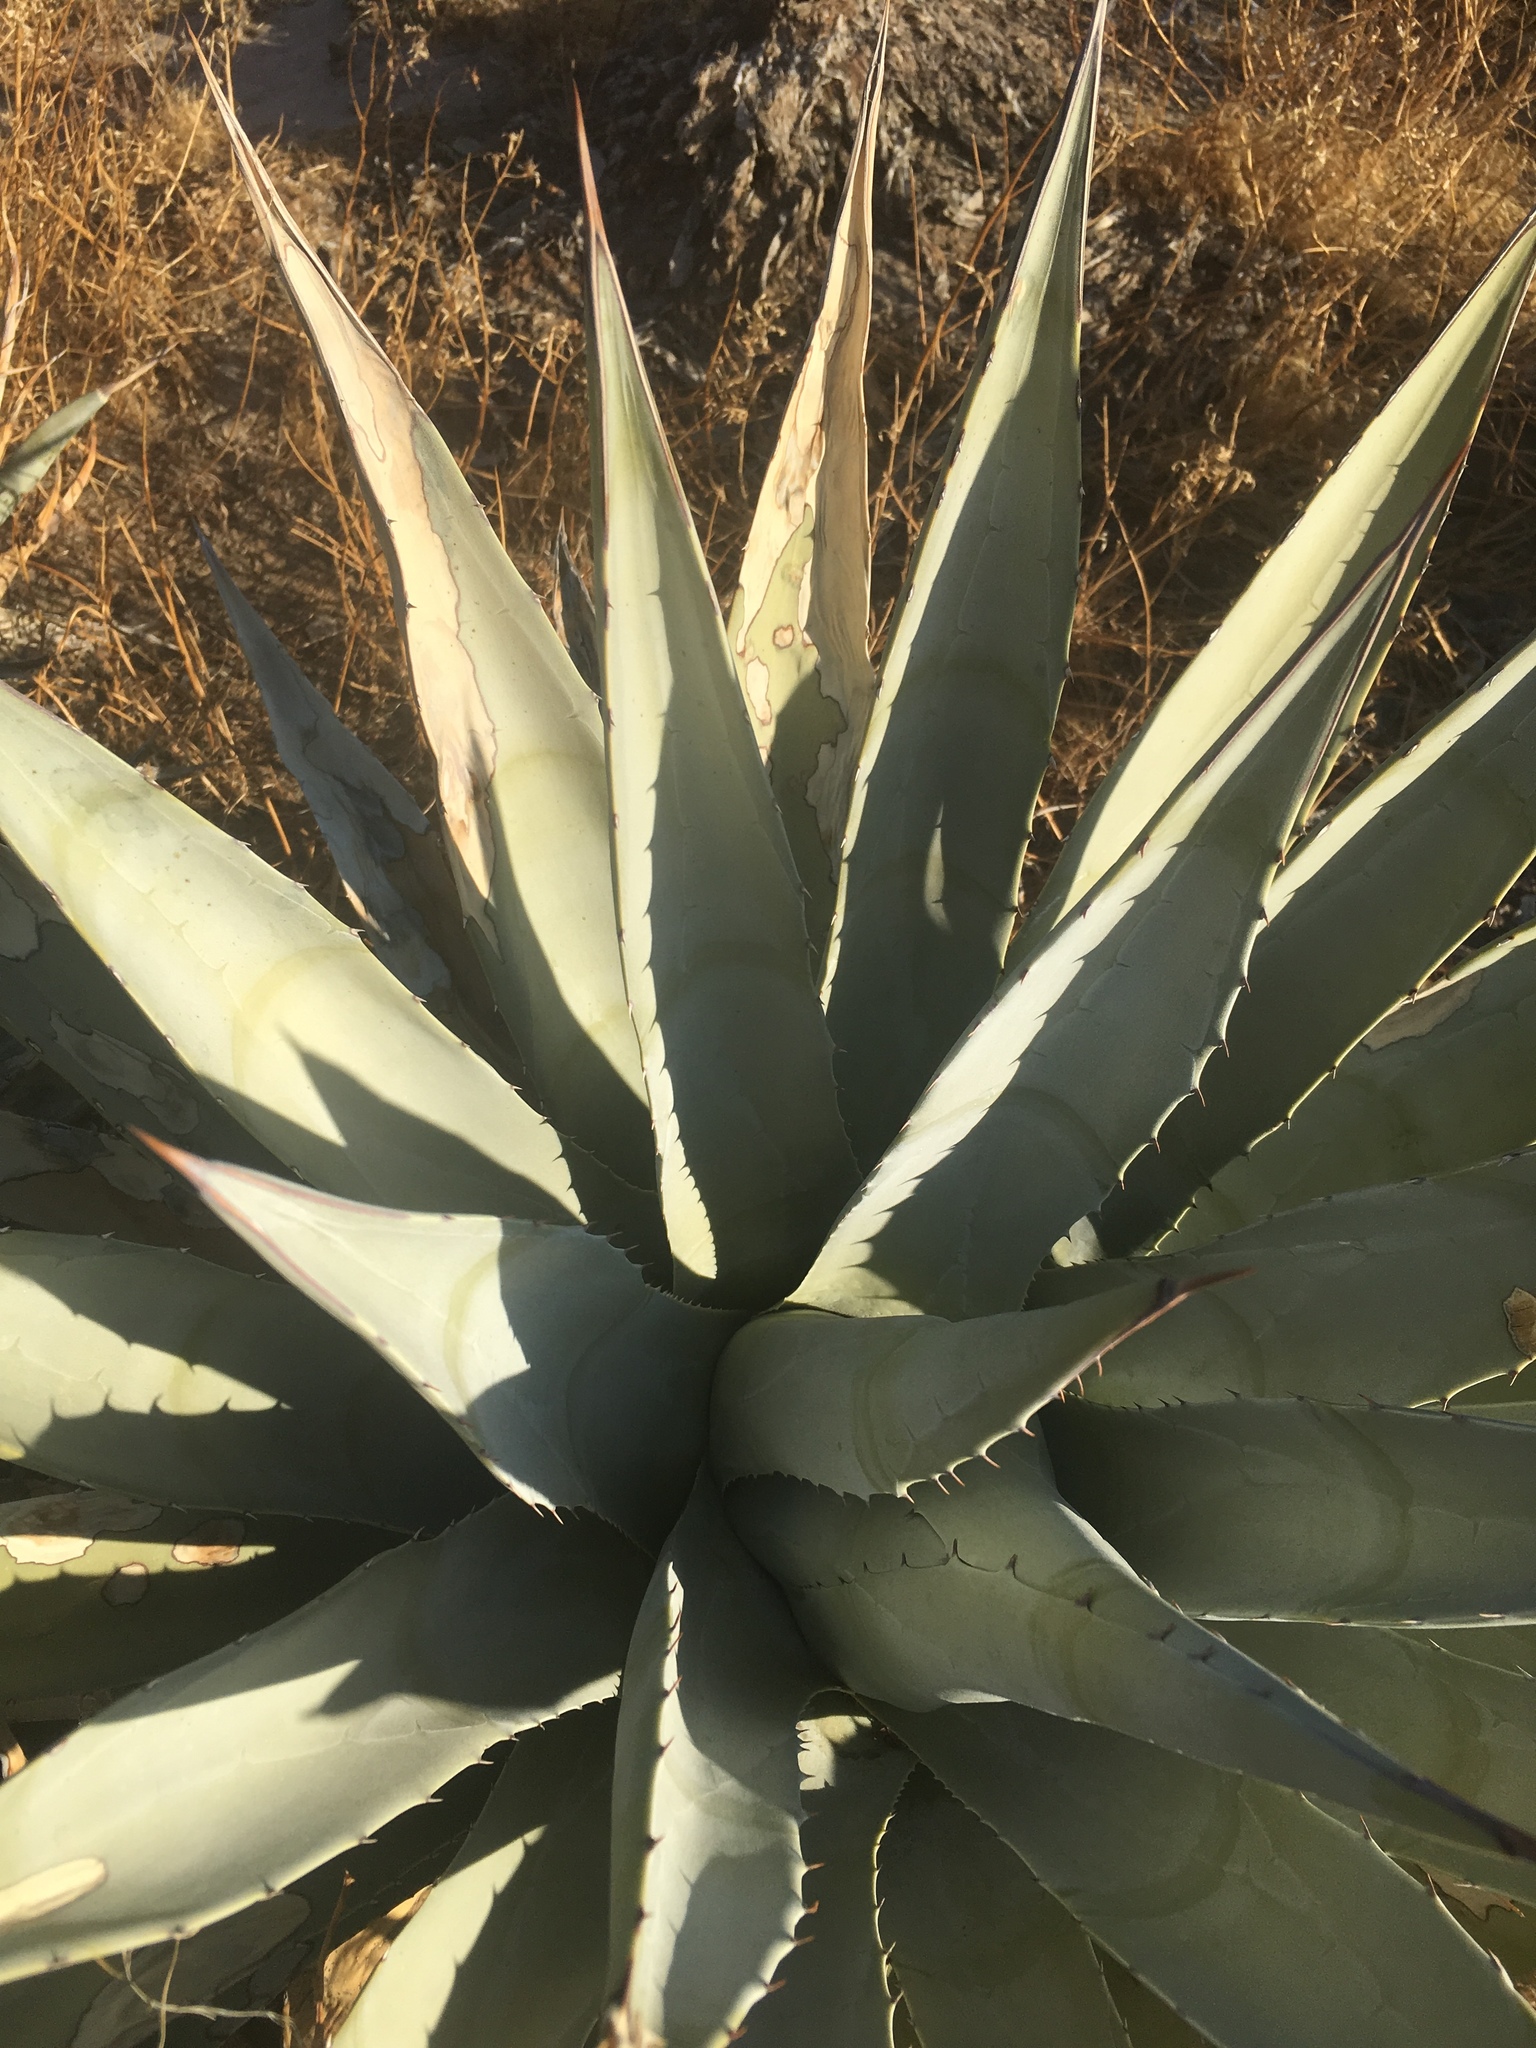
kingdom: Plantae
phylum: Tracheophyta
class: Liliopsida
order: Asparagales
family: Asparagaceae
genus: Agave
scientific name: Agave deserti
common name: Desert agave
